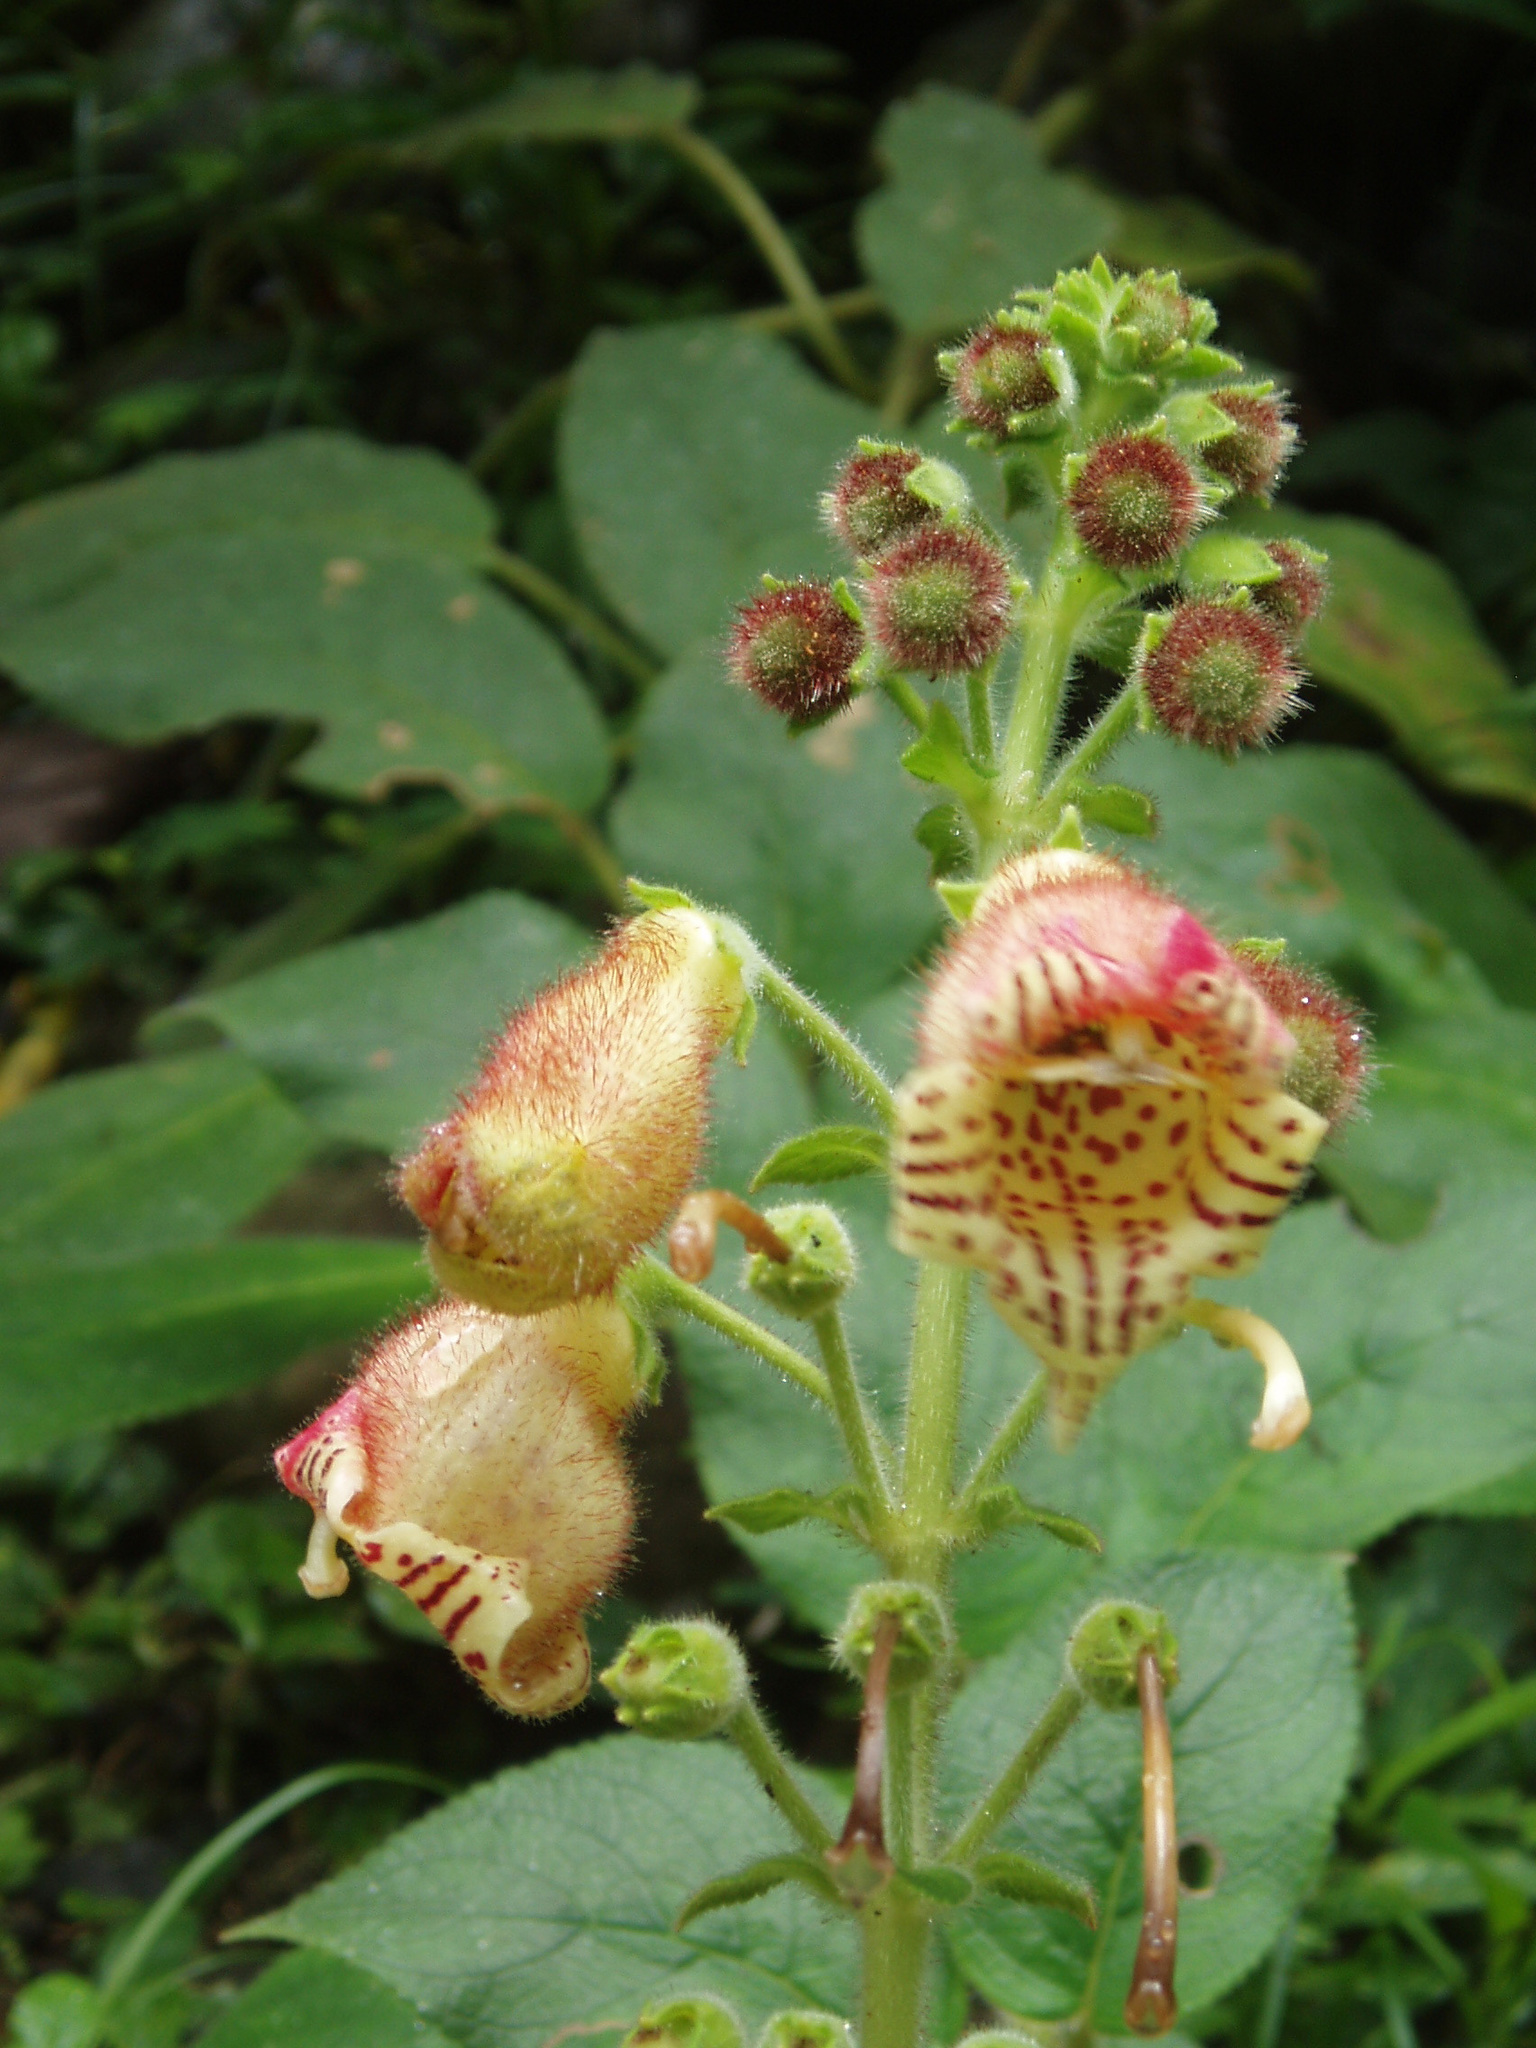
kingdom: Plantae
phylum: Tracheophyta
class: Magnoliopsida
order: Lamiales
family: Gesneriaceae
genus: Kohleria
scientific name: Kohleria allenii
